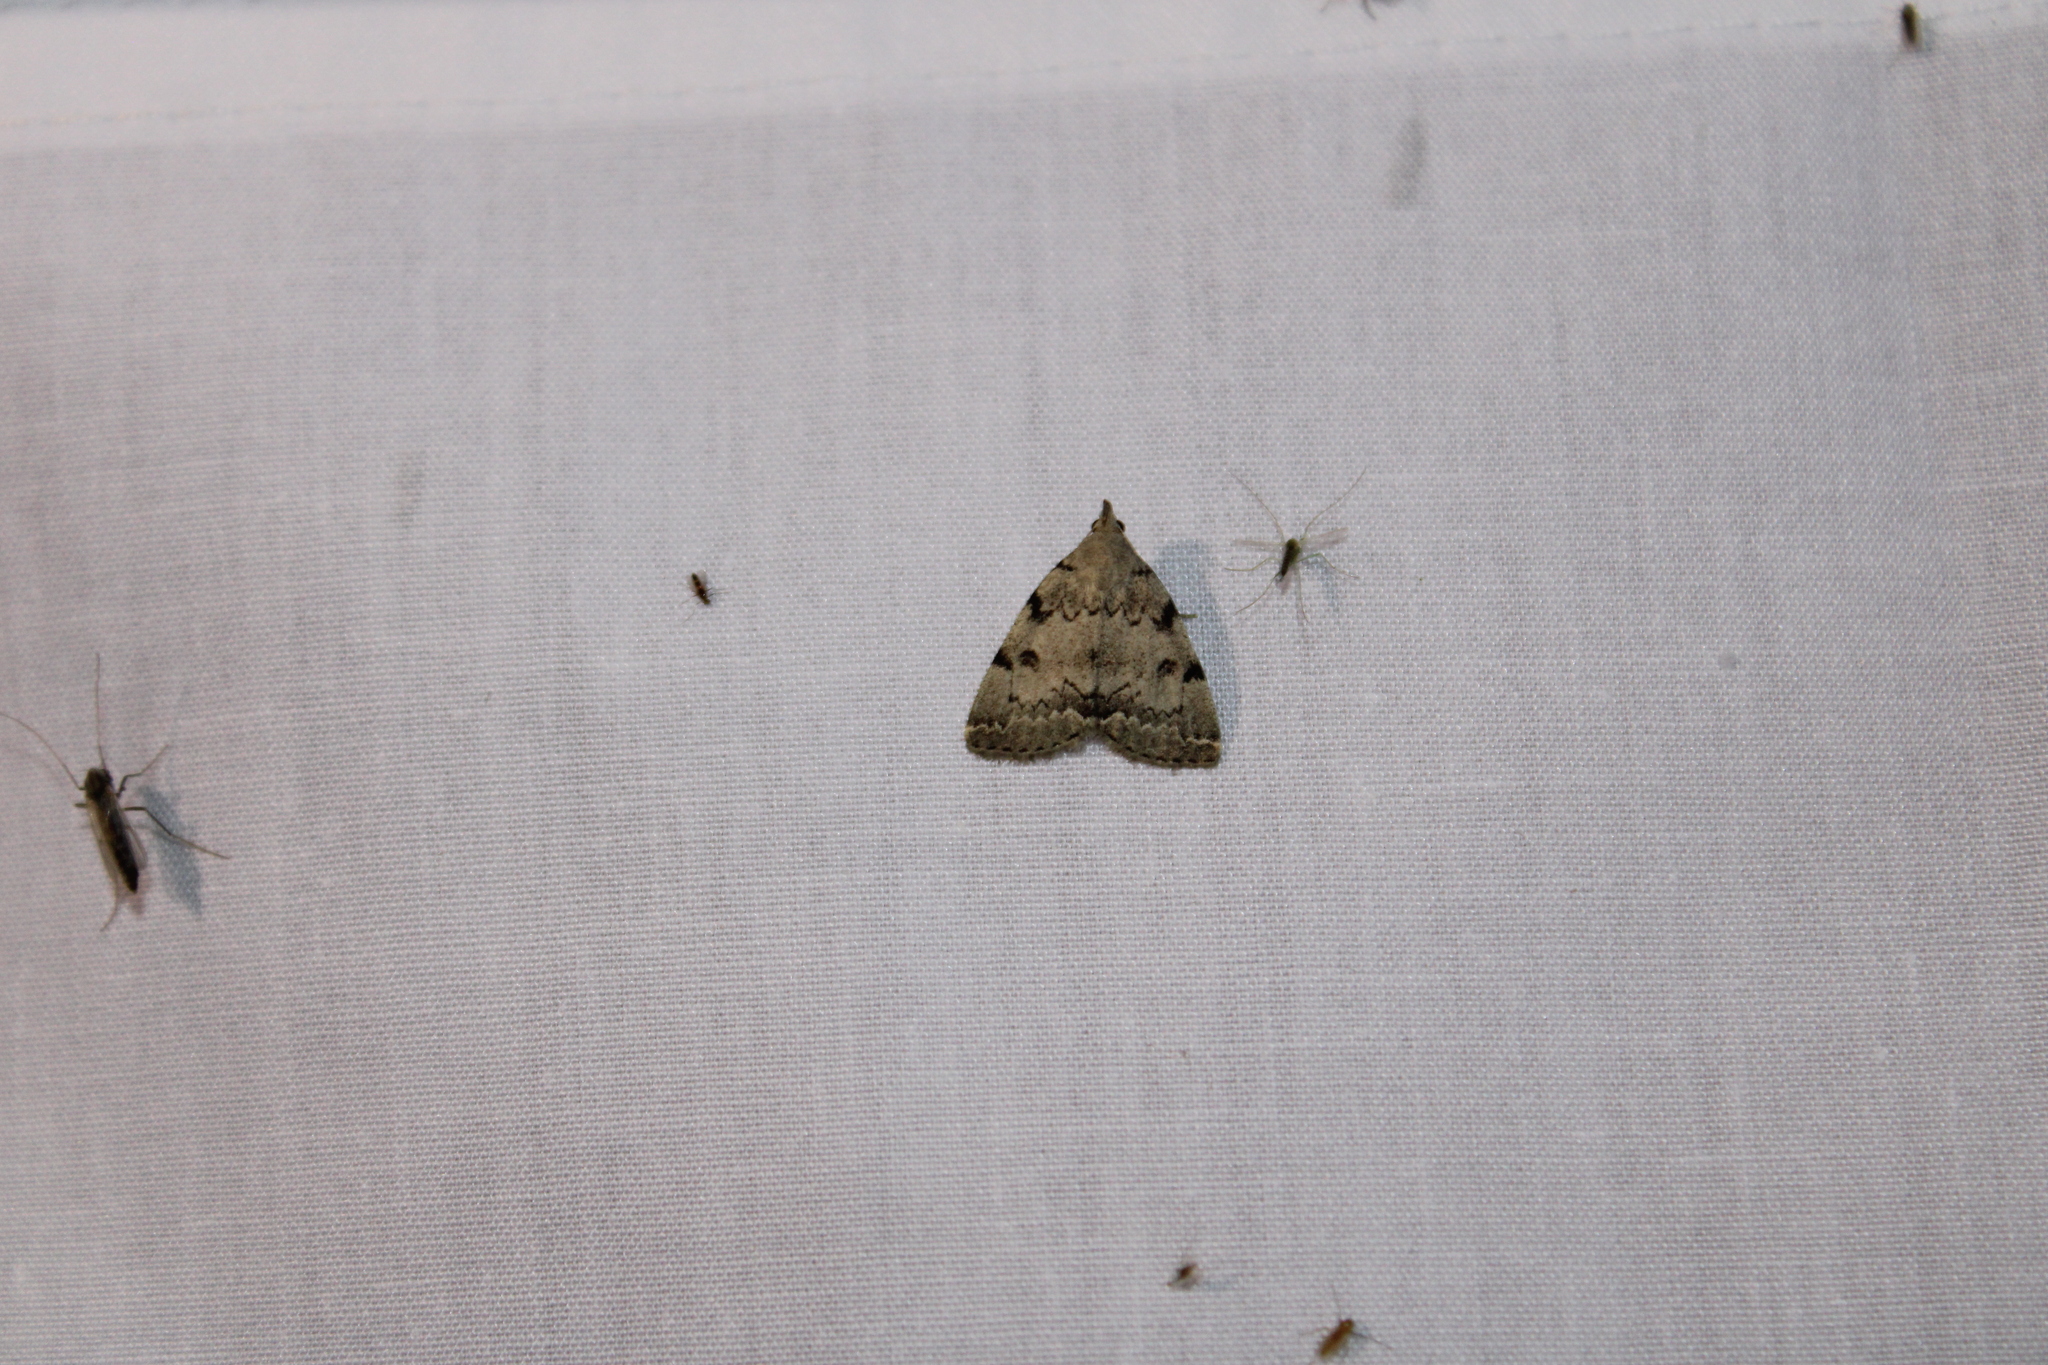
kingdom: Animalia
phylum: Arthropoda
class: Insecta
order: Lepidoptera
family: Erebidae
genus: Zanclognatha
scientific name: Zanclognatha theralis
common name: Flagged fan-foot
